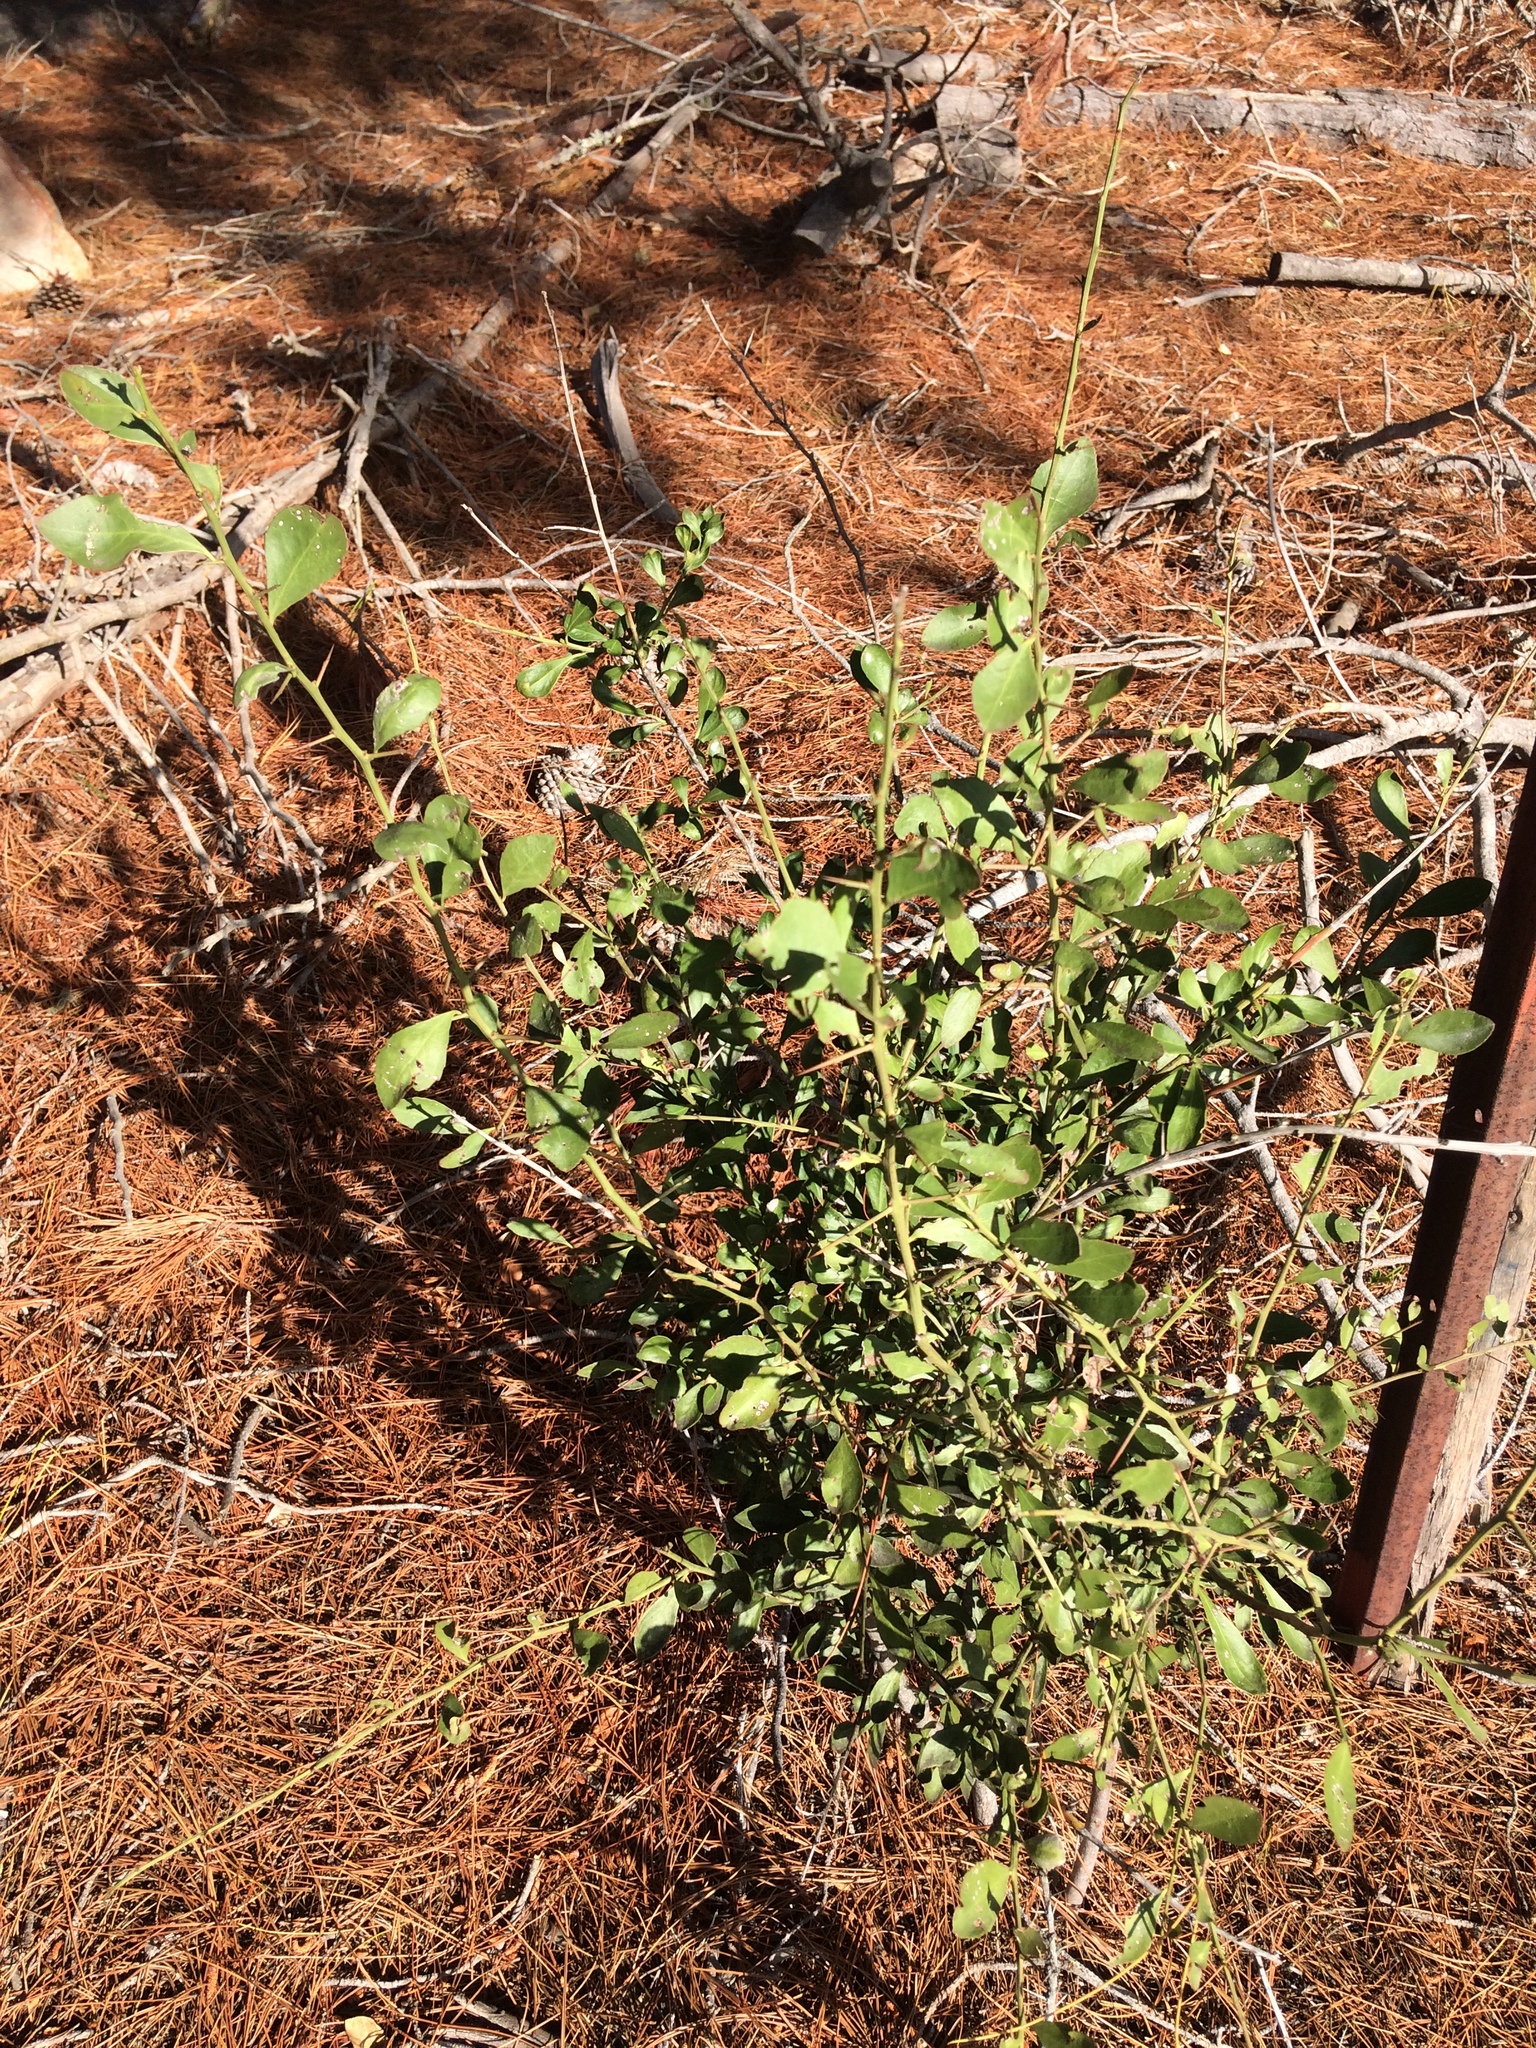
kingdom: Plantae
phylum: Tracheophyta
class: Magnoliopsida
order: Celastrales
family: Celastraceae
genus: Gymnosporia
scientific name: Gymnosporia buxifolia
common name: Common spike-thorn
